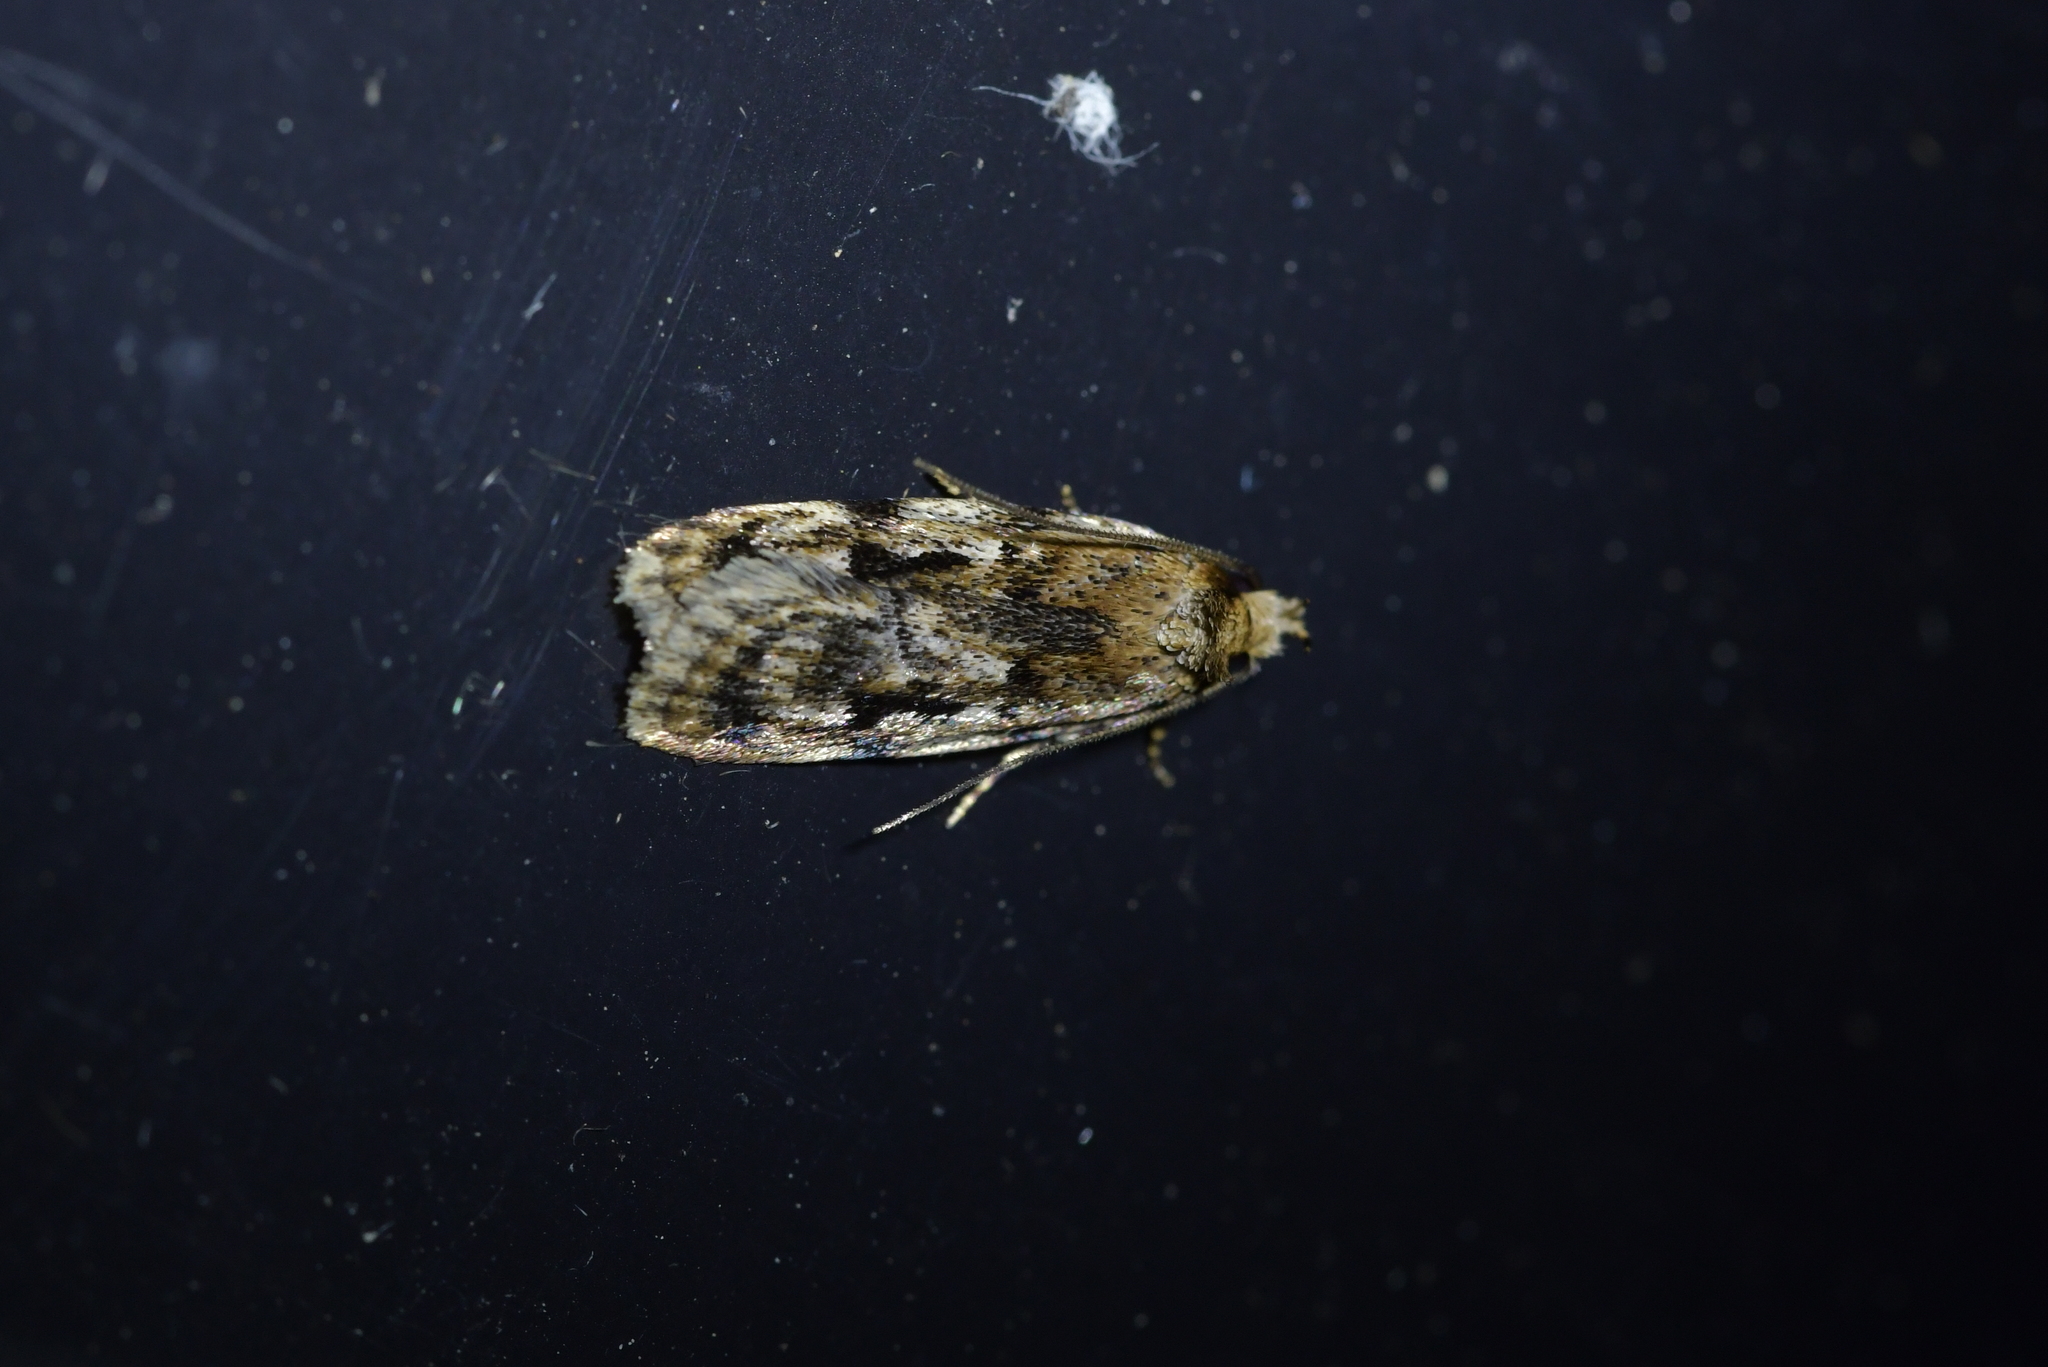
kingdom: Animalia
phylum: Arthropoda
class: Insecta
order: Lepidoptera
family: Oecophoridae
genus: Barea
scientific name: Barea exarcha
